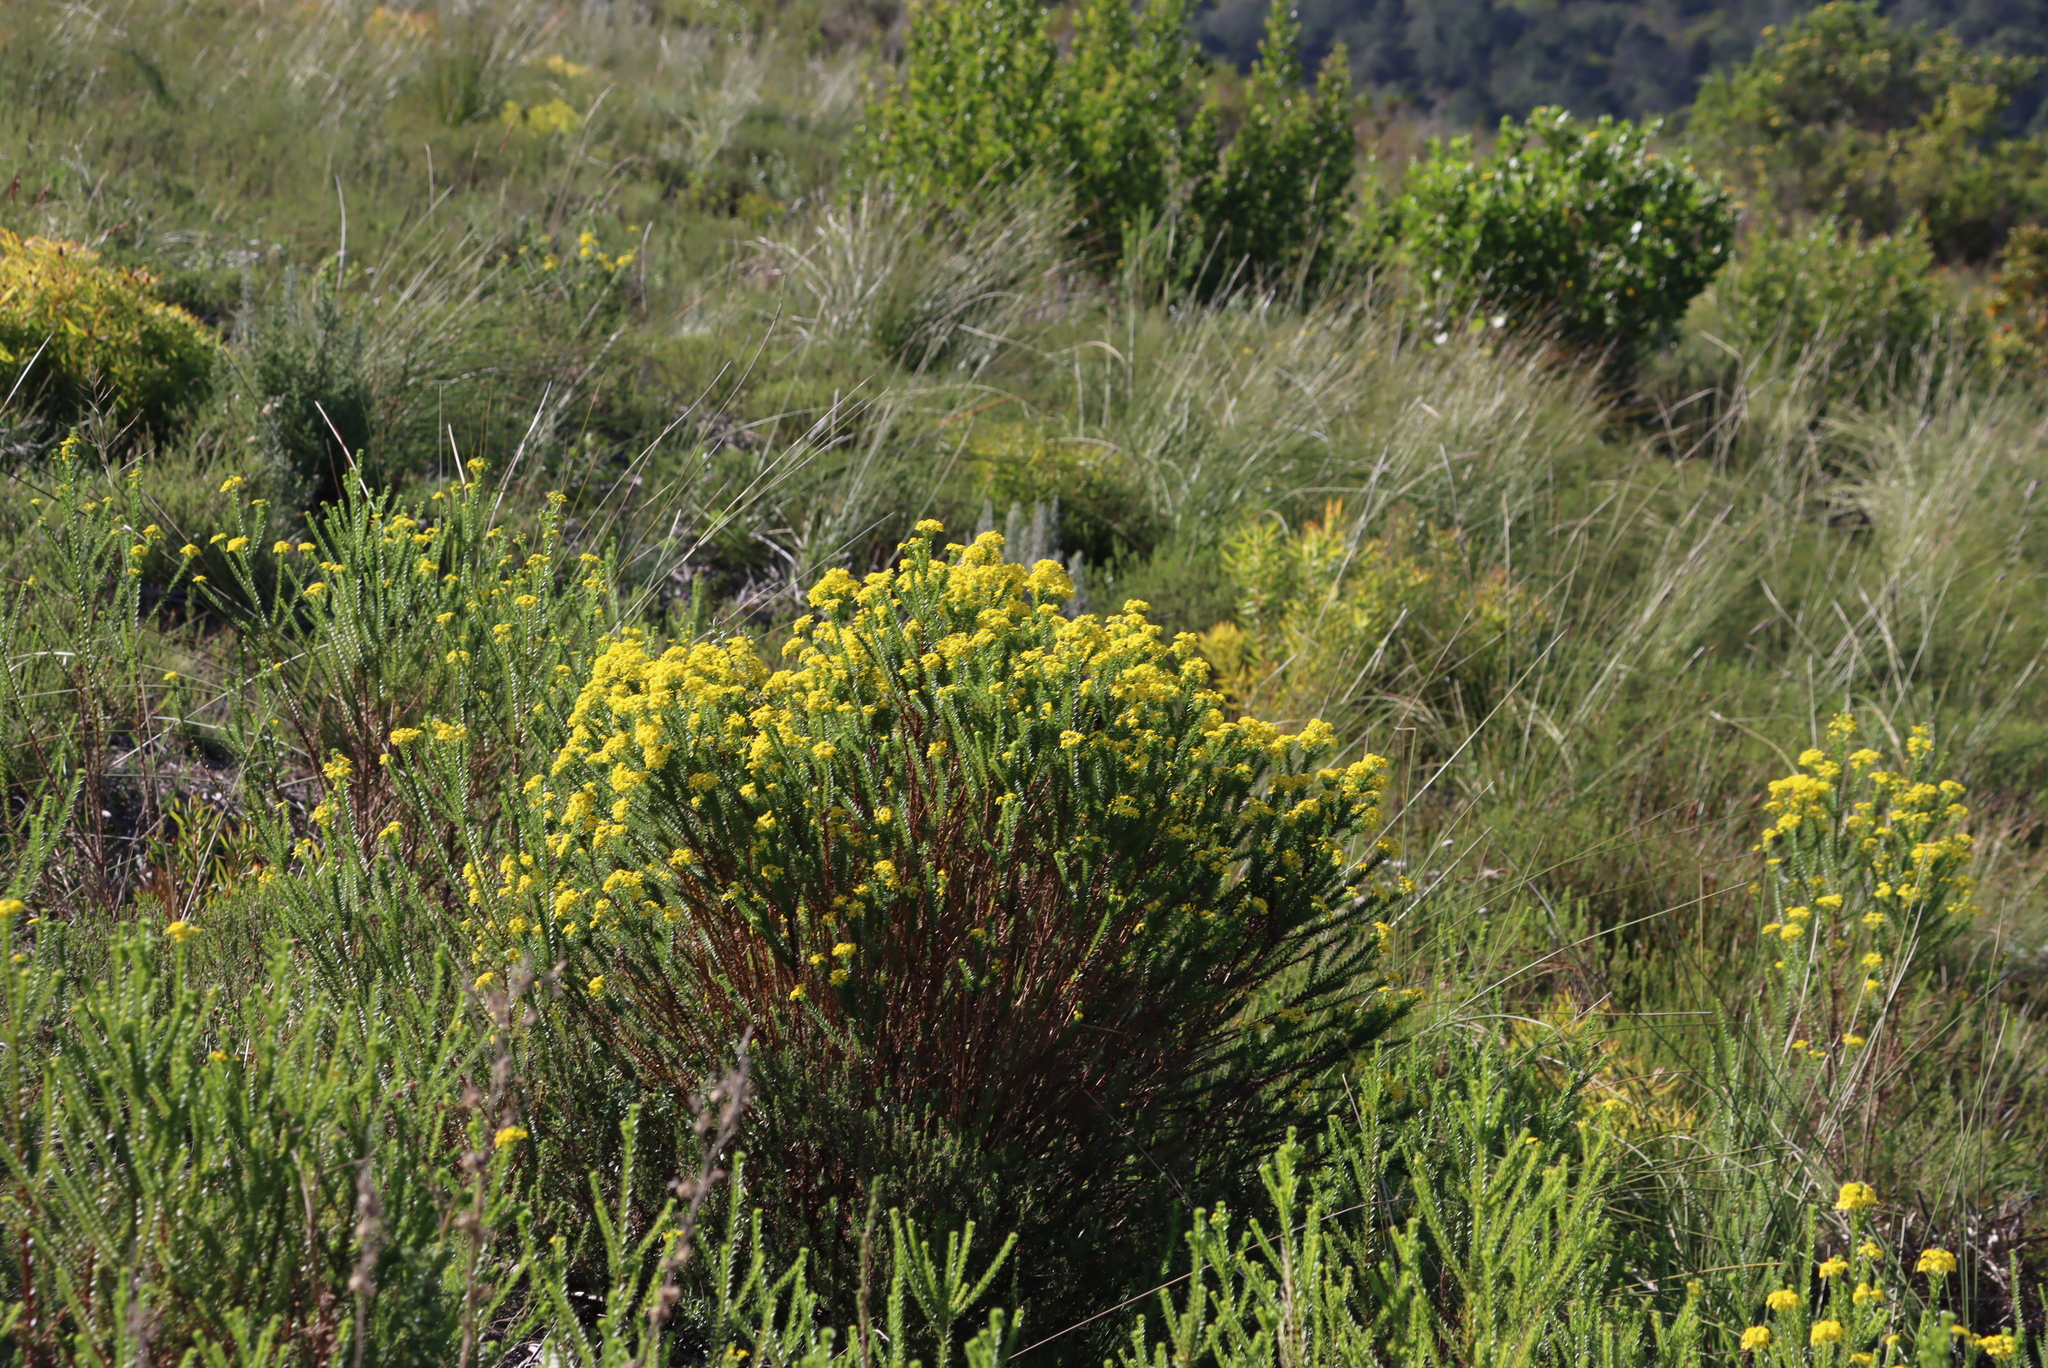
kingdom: Plantae
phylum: Tracheophyta
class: Magnoliopsida
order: Asterales
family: Asteraceae
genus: Euryops
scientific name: Euryops virgineus
